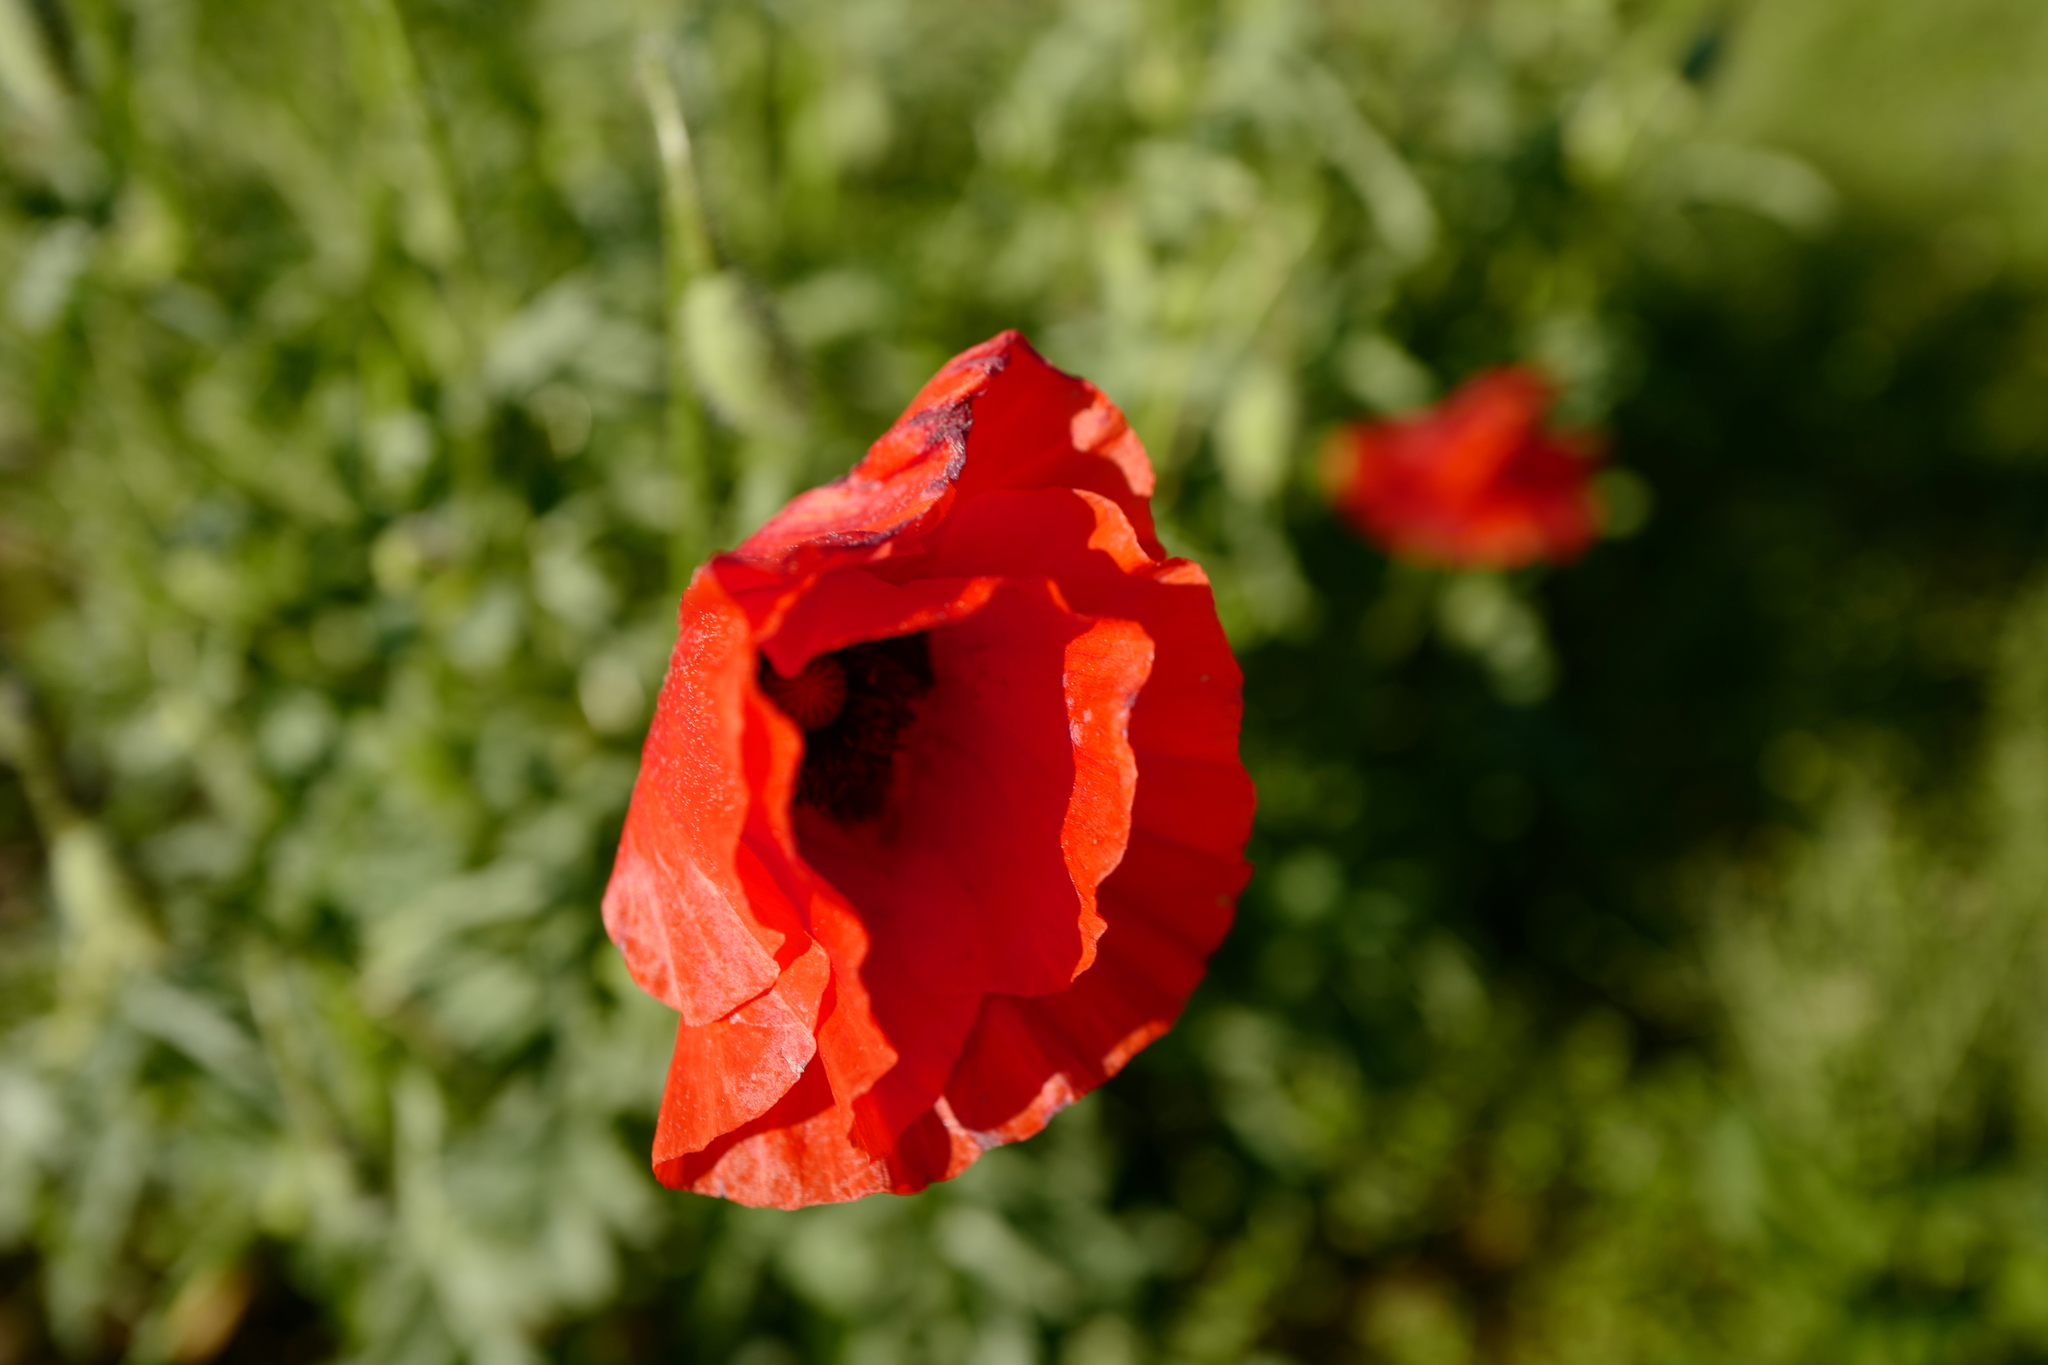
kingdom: Plantae
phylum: Tracheophyta
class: Magnoliopsida
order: Ranunculales
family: Papaveraceae
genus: Papaver
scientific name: Papaver rhoeas
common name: Corn poppy
